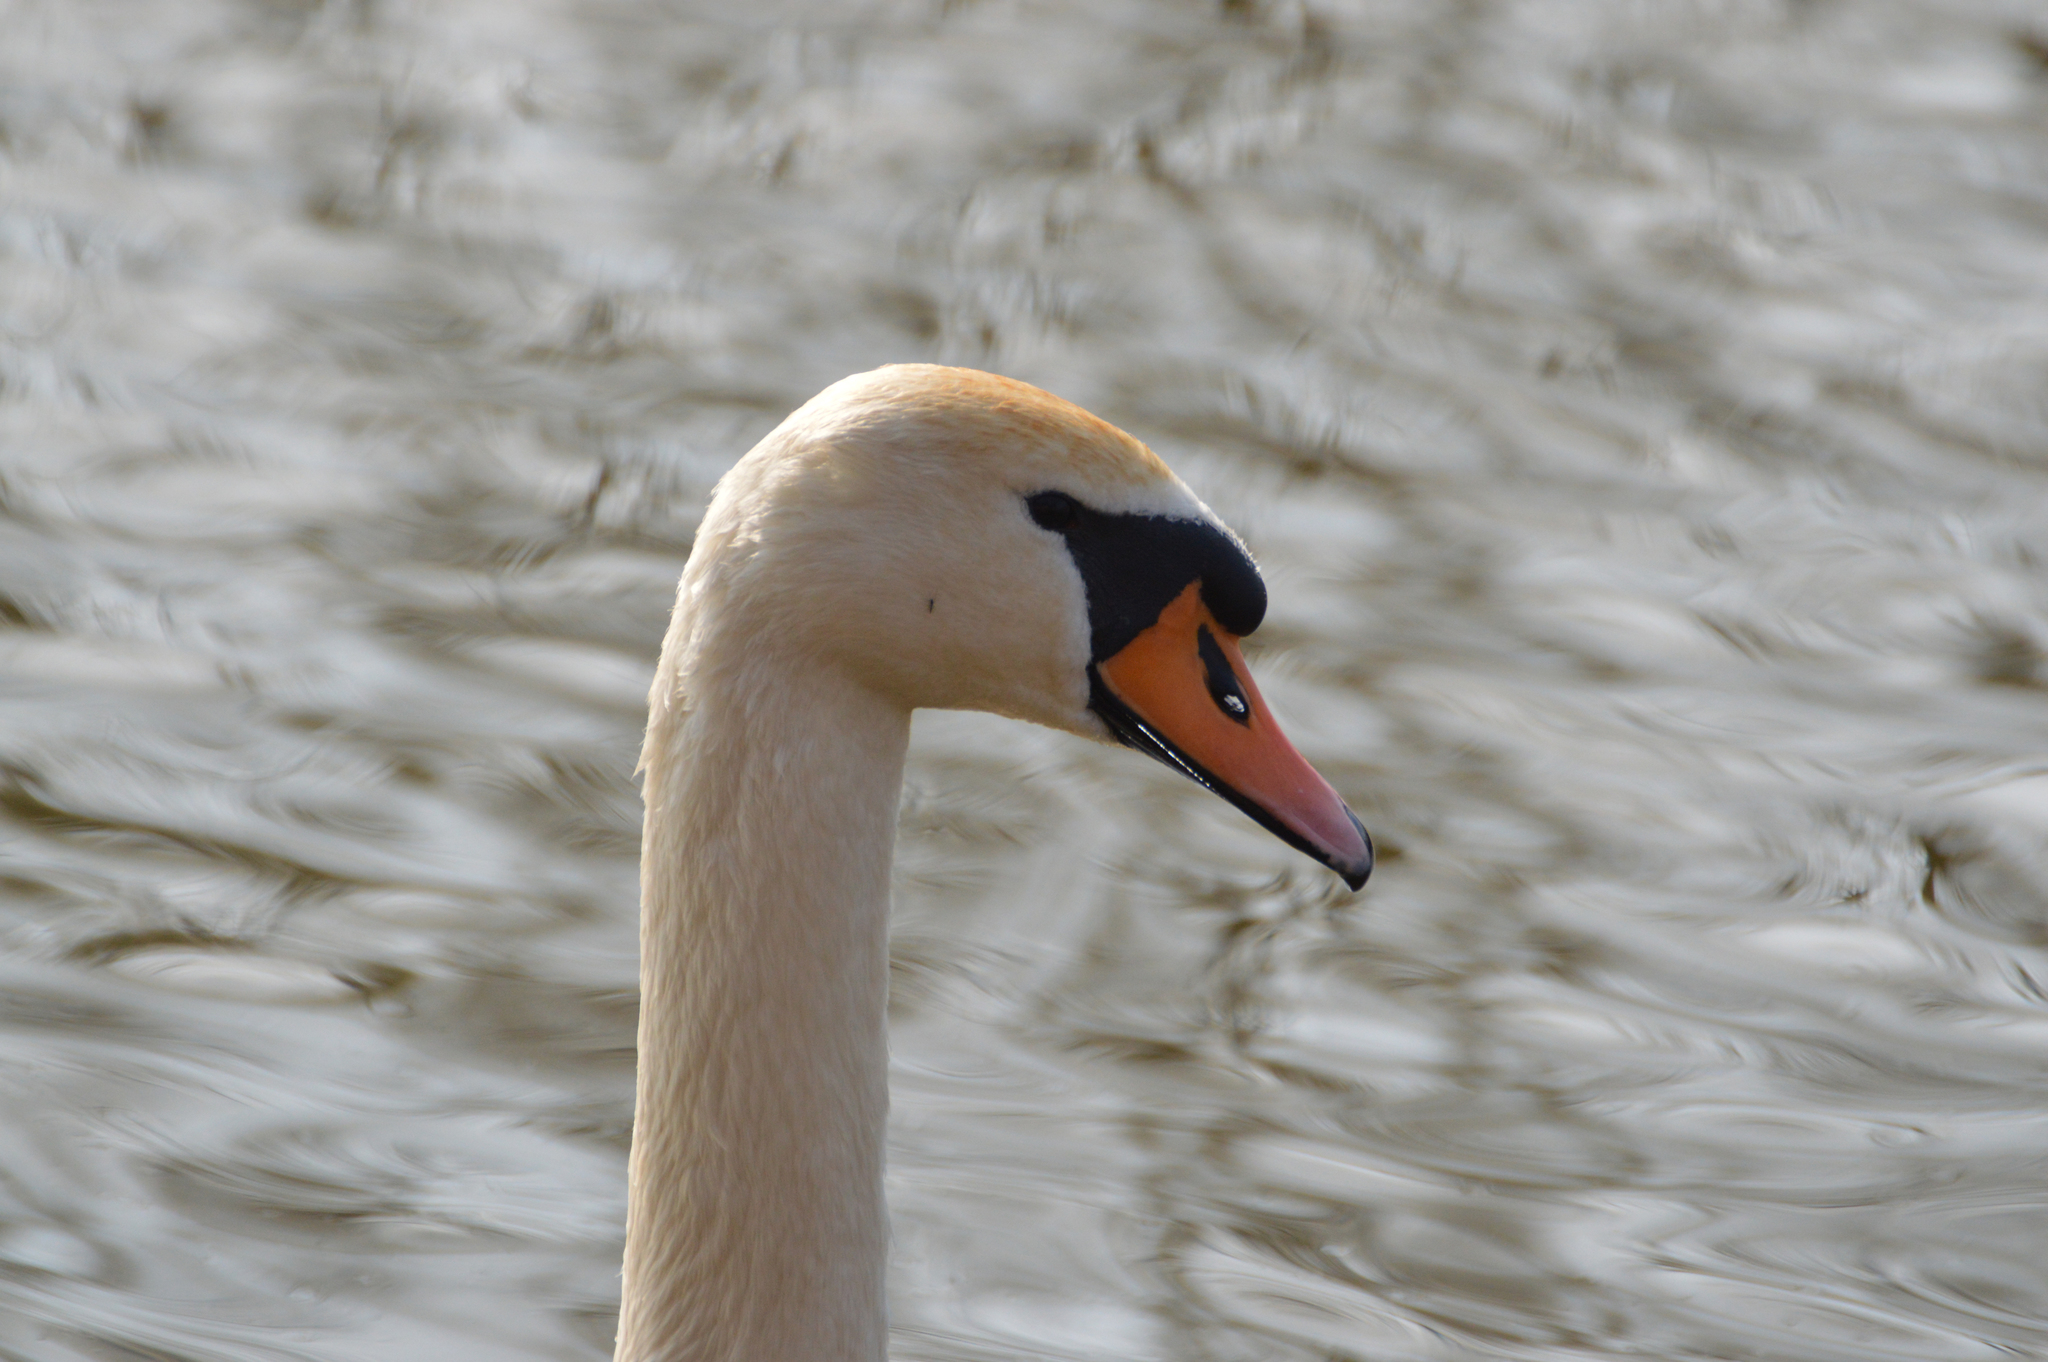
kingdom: Animalia
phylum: Chordata
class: Aves
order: Anseriformes
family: Anatidae
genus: Cygnus
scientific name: Cygnus olor
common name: Mute swan
